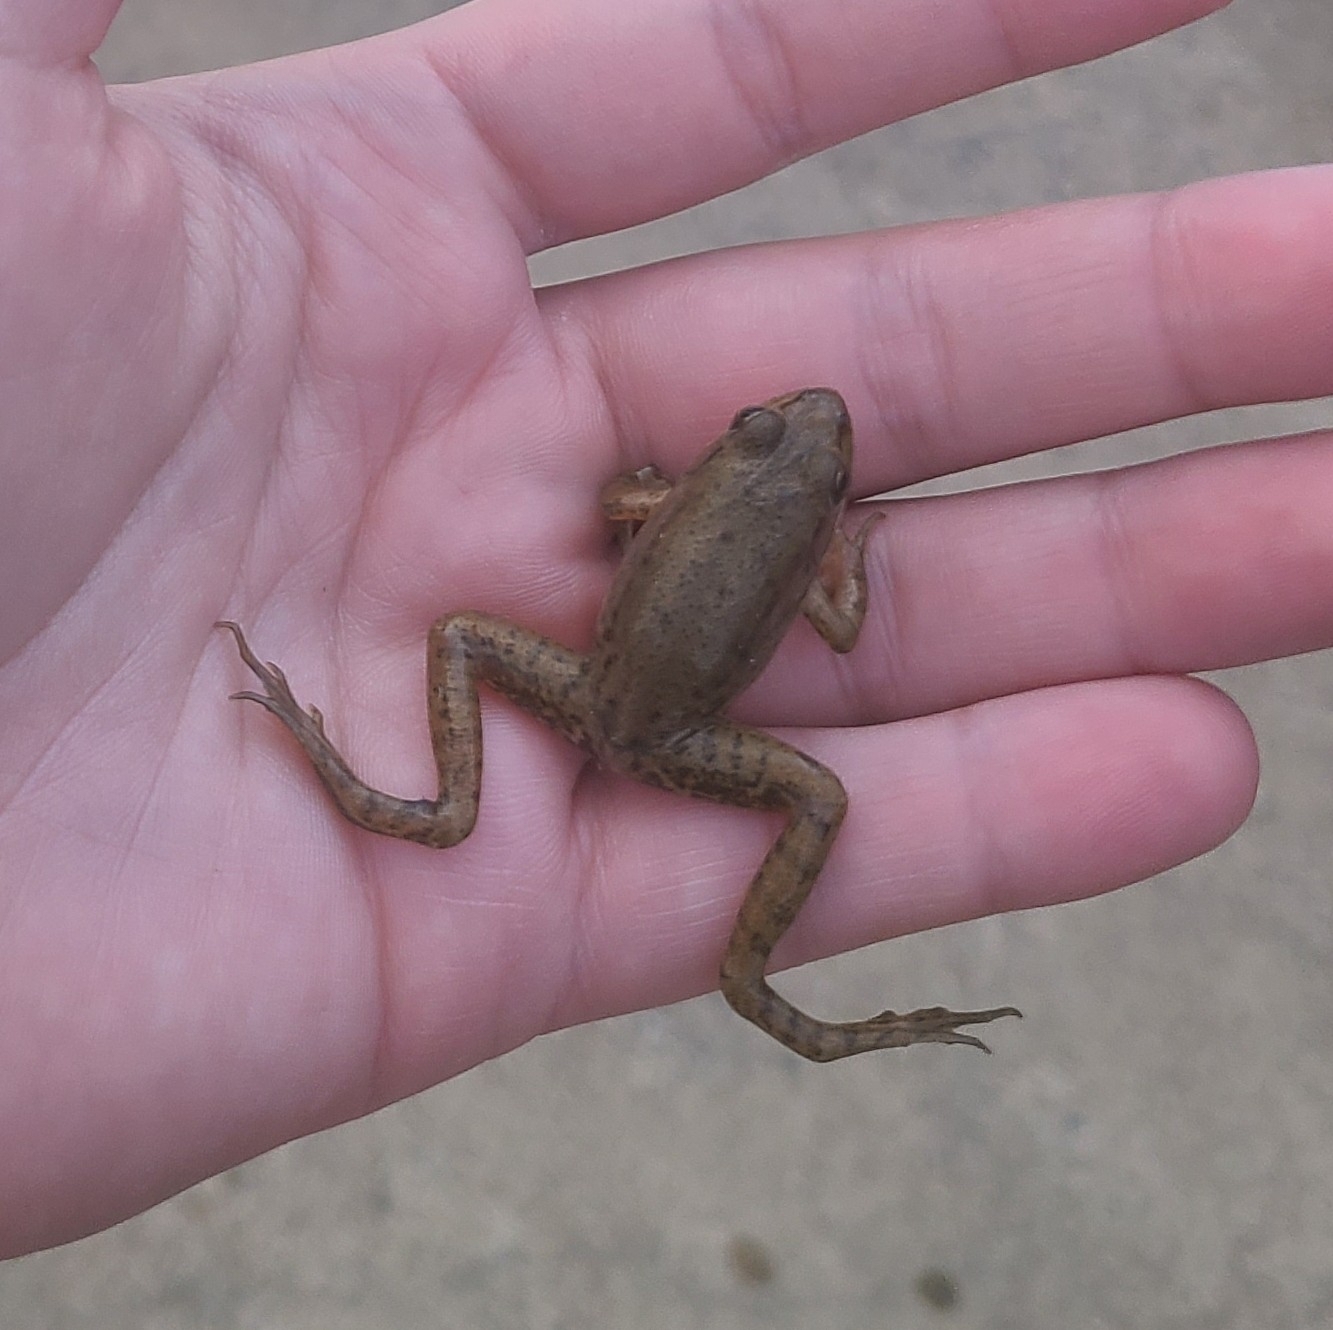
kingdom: Animalia
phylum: Chordata
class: Amphibia
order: Anura
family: Ranidae
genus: Lithobates
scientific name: Lithobates clamitans
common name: Green frog
